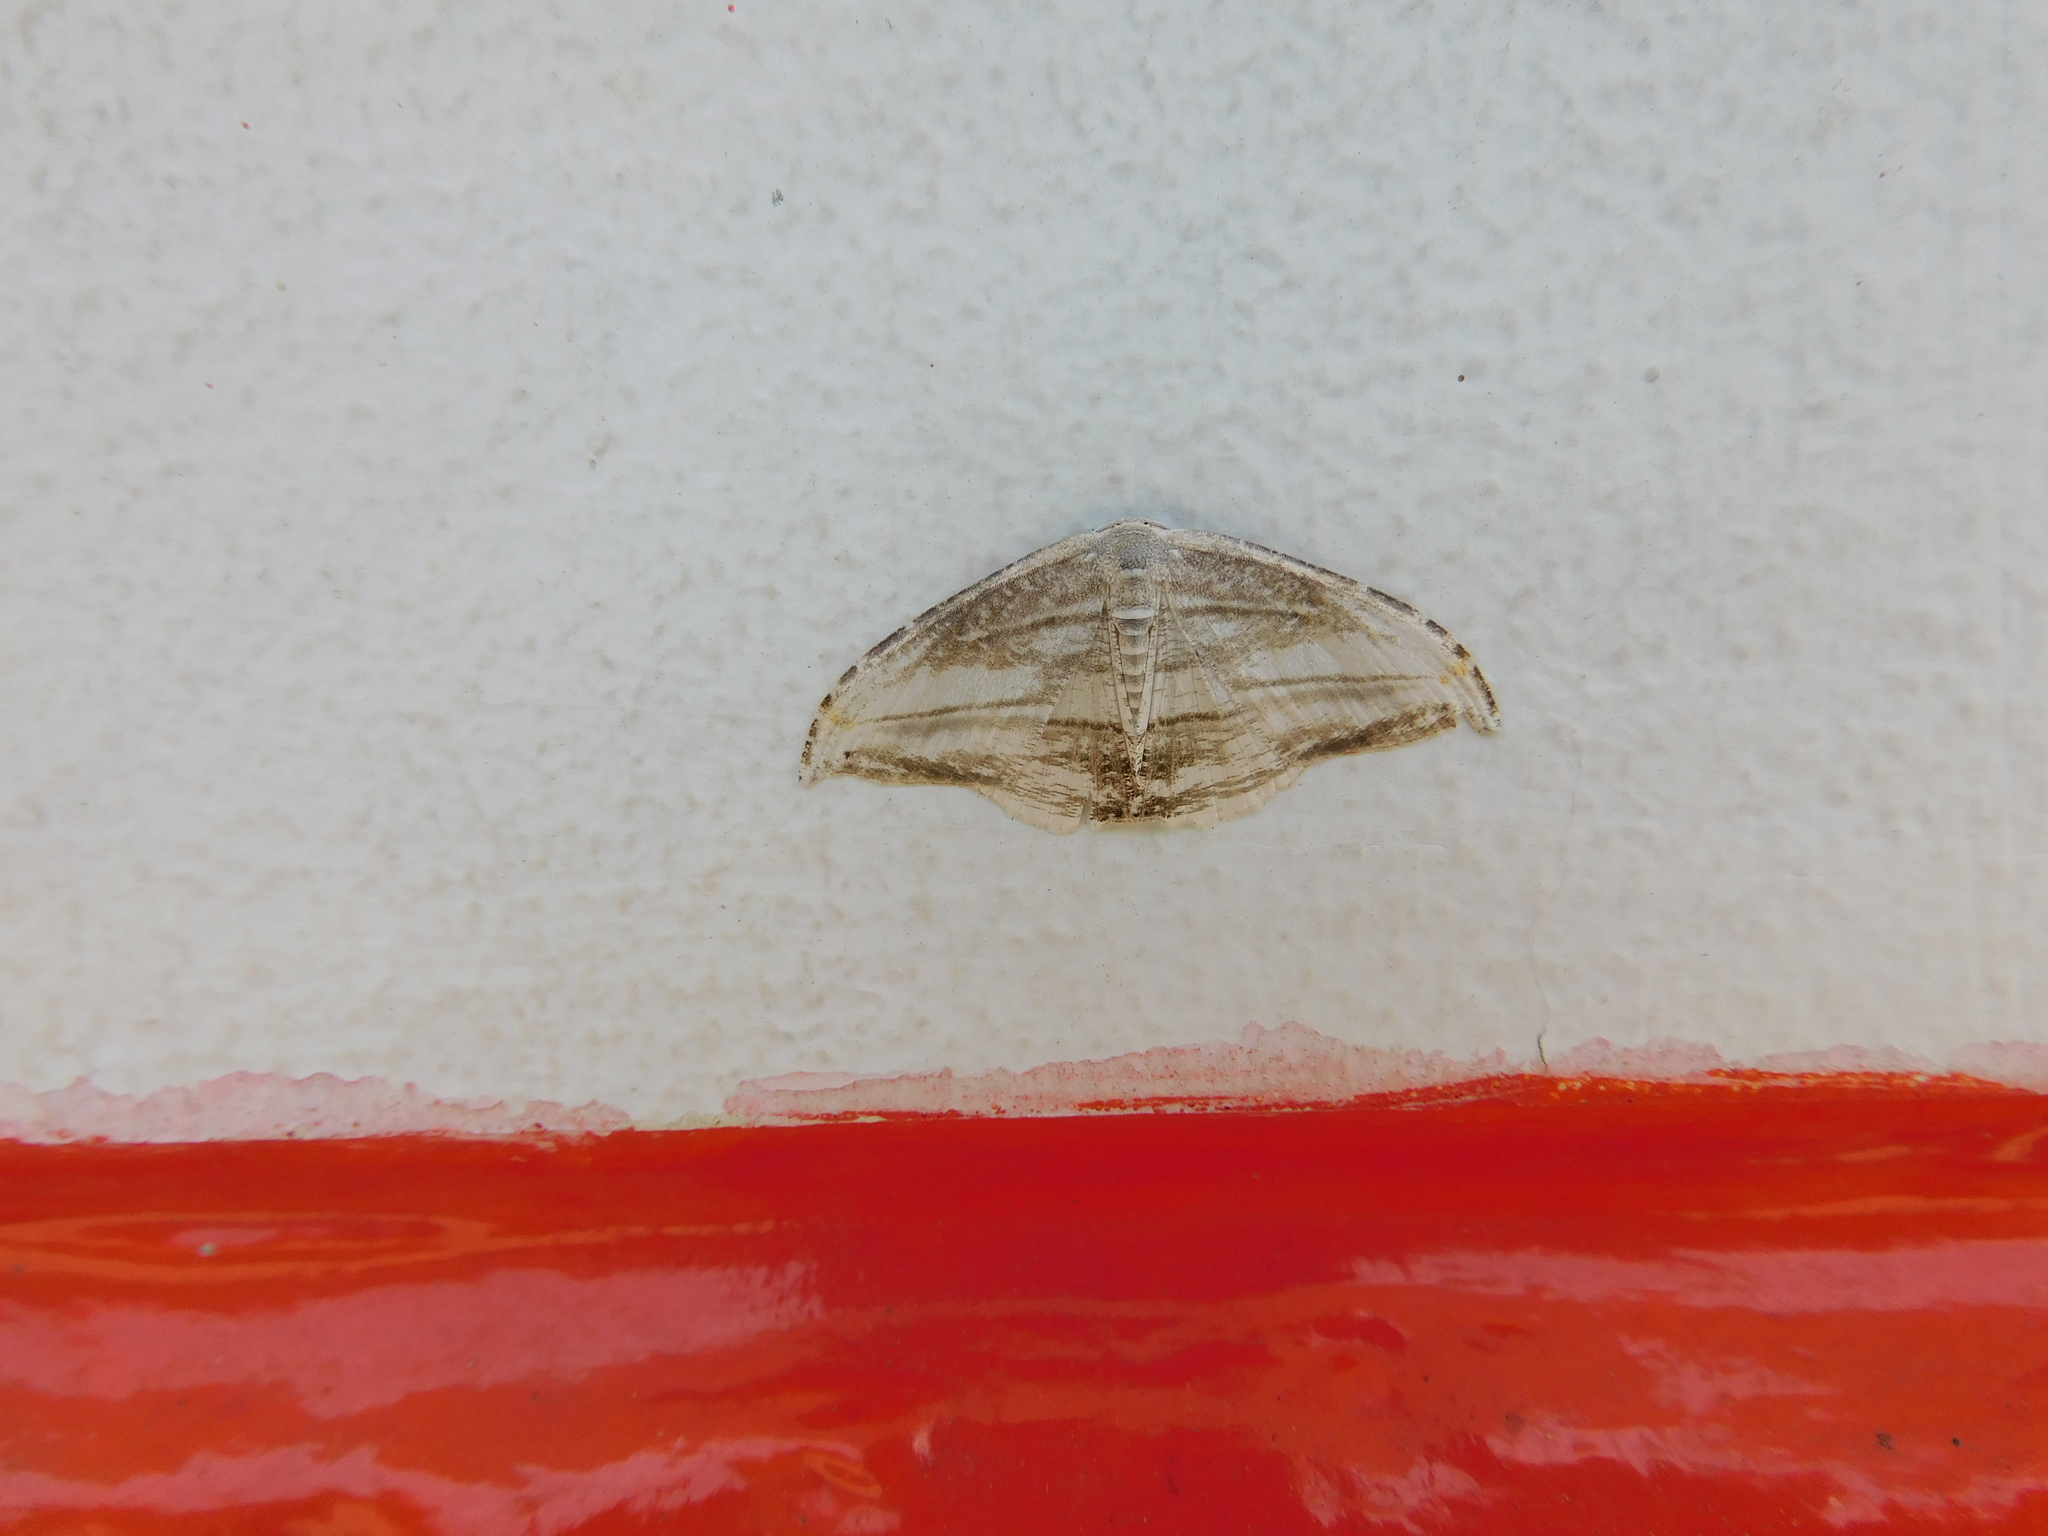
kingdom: Animalia
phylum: Arthropoda
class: Insecta
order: Lepidoptera
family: Uraniidae
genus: Morphomima
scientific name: Morphomima fulvitacta
